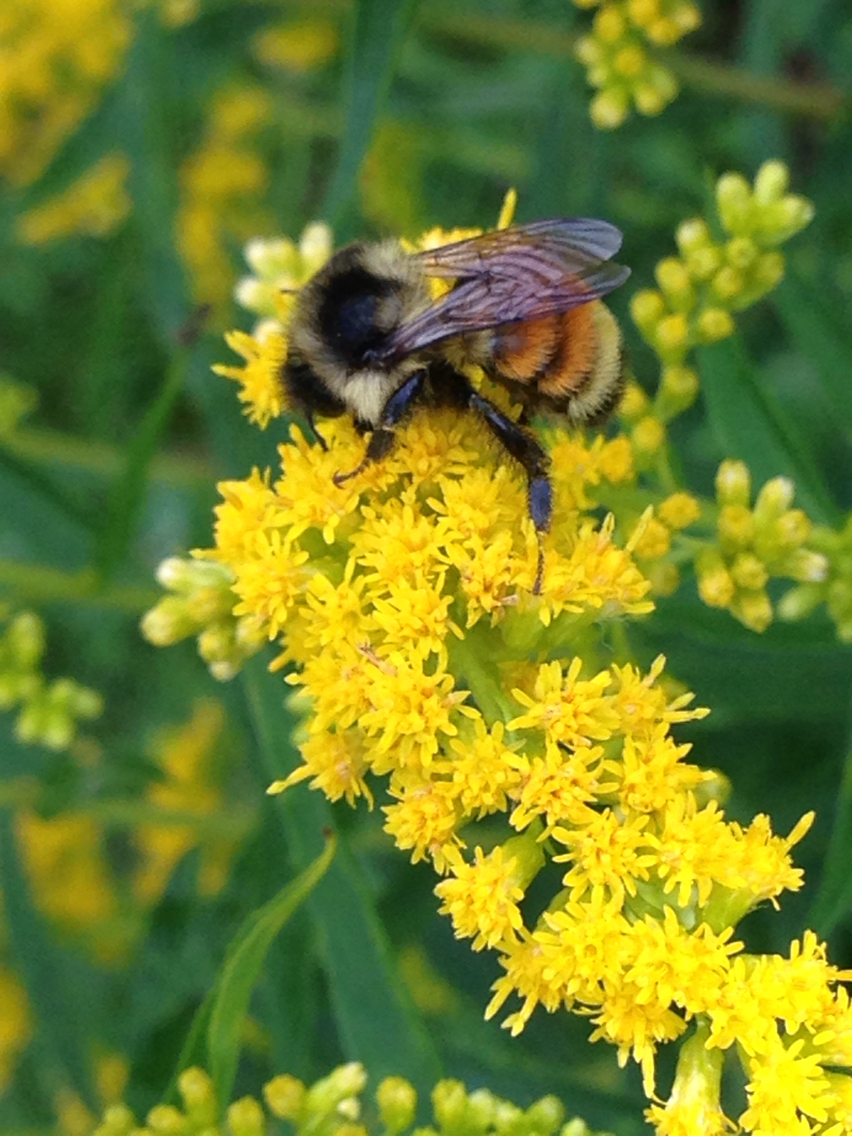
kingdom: Animalia
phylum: Arthropoda
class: Insecta
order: Hymenoptera
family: Apidae
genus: Bombus
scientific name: Bombus ternarius
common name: Tri-colored bumble bee
